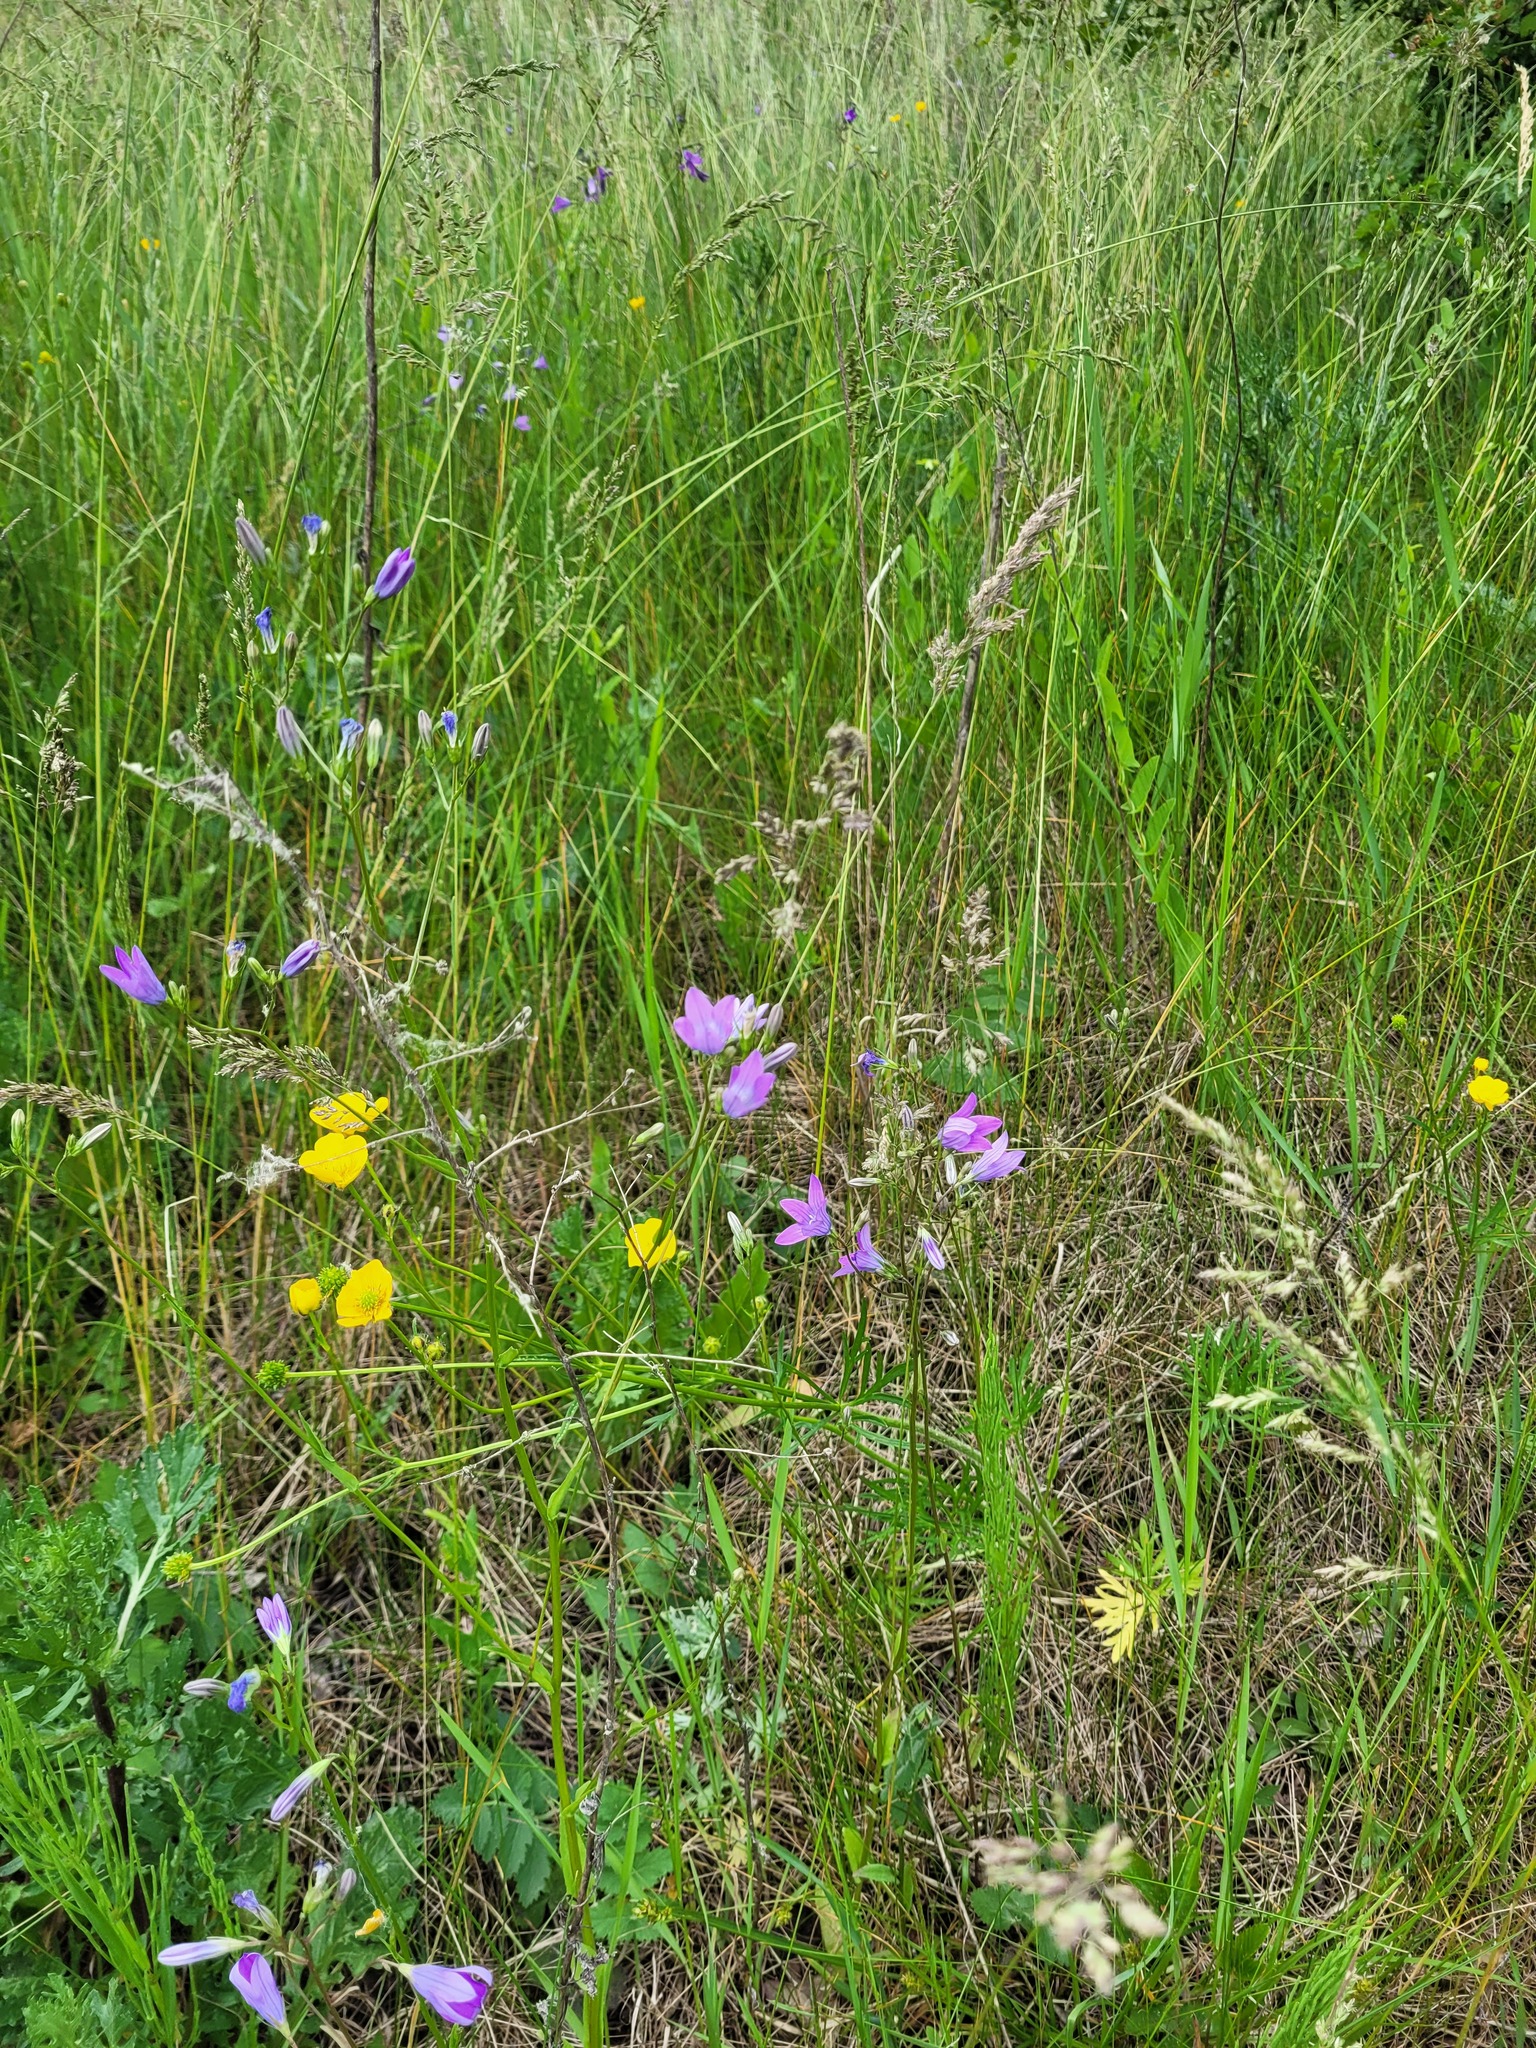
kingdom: Plantae
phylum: Tracheophyta
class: Magnoliopsida
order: Asterales
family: Campanulaceae
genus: Campanula
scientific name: Campanula patula
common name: Spreading bellflower
